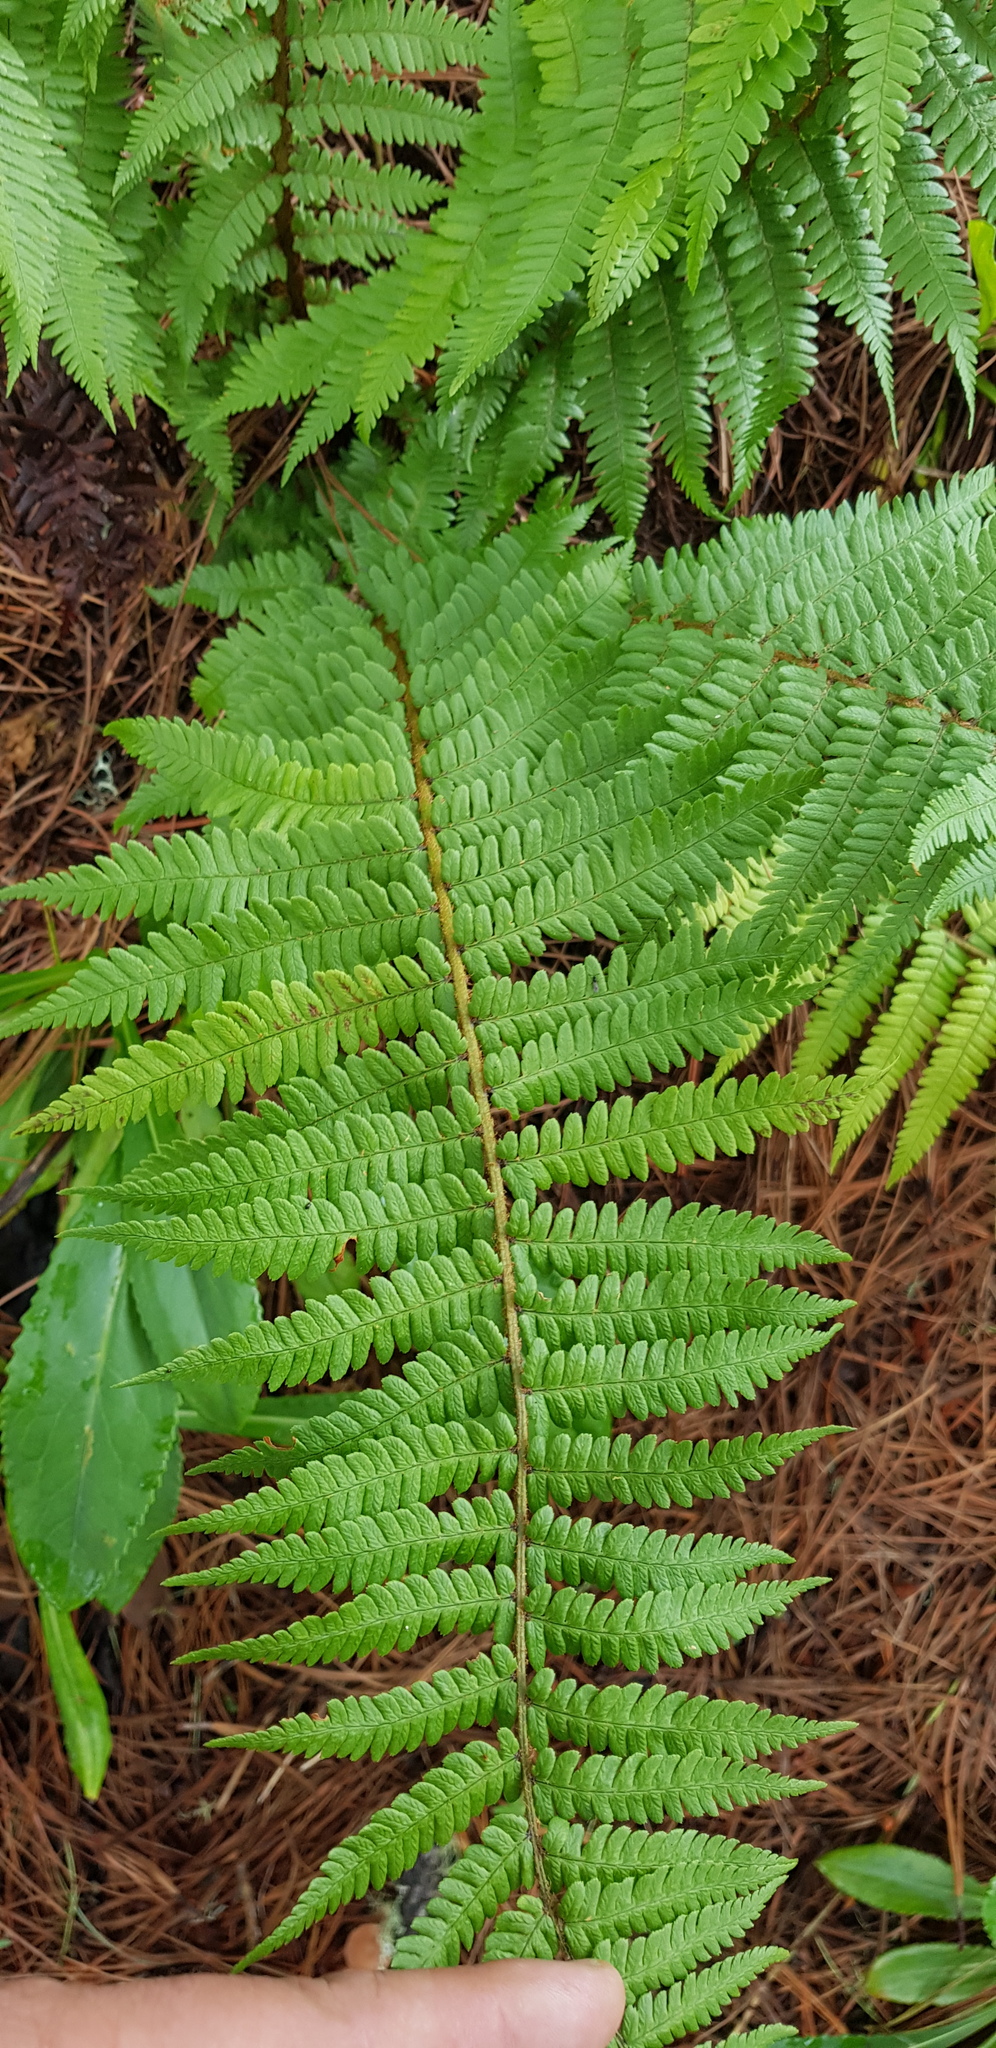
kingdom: Plantae
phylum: Tracheophyta
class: Polypodiopsida
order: Polypodiales
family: Dryopteridaceae
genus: Dryopteris
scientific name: Dryopteris wallichiana
